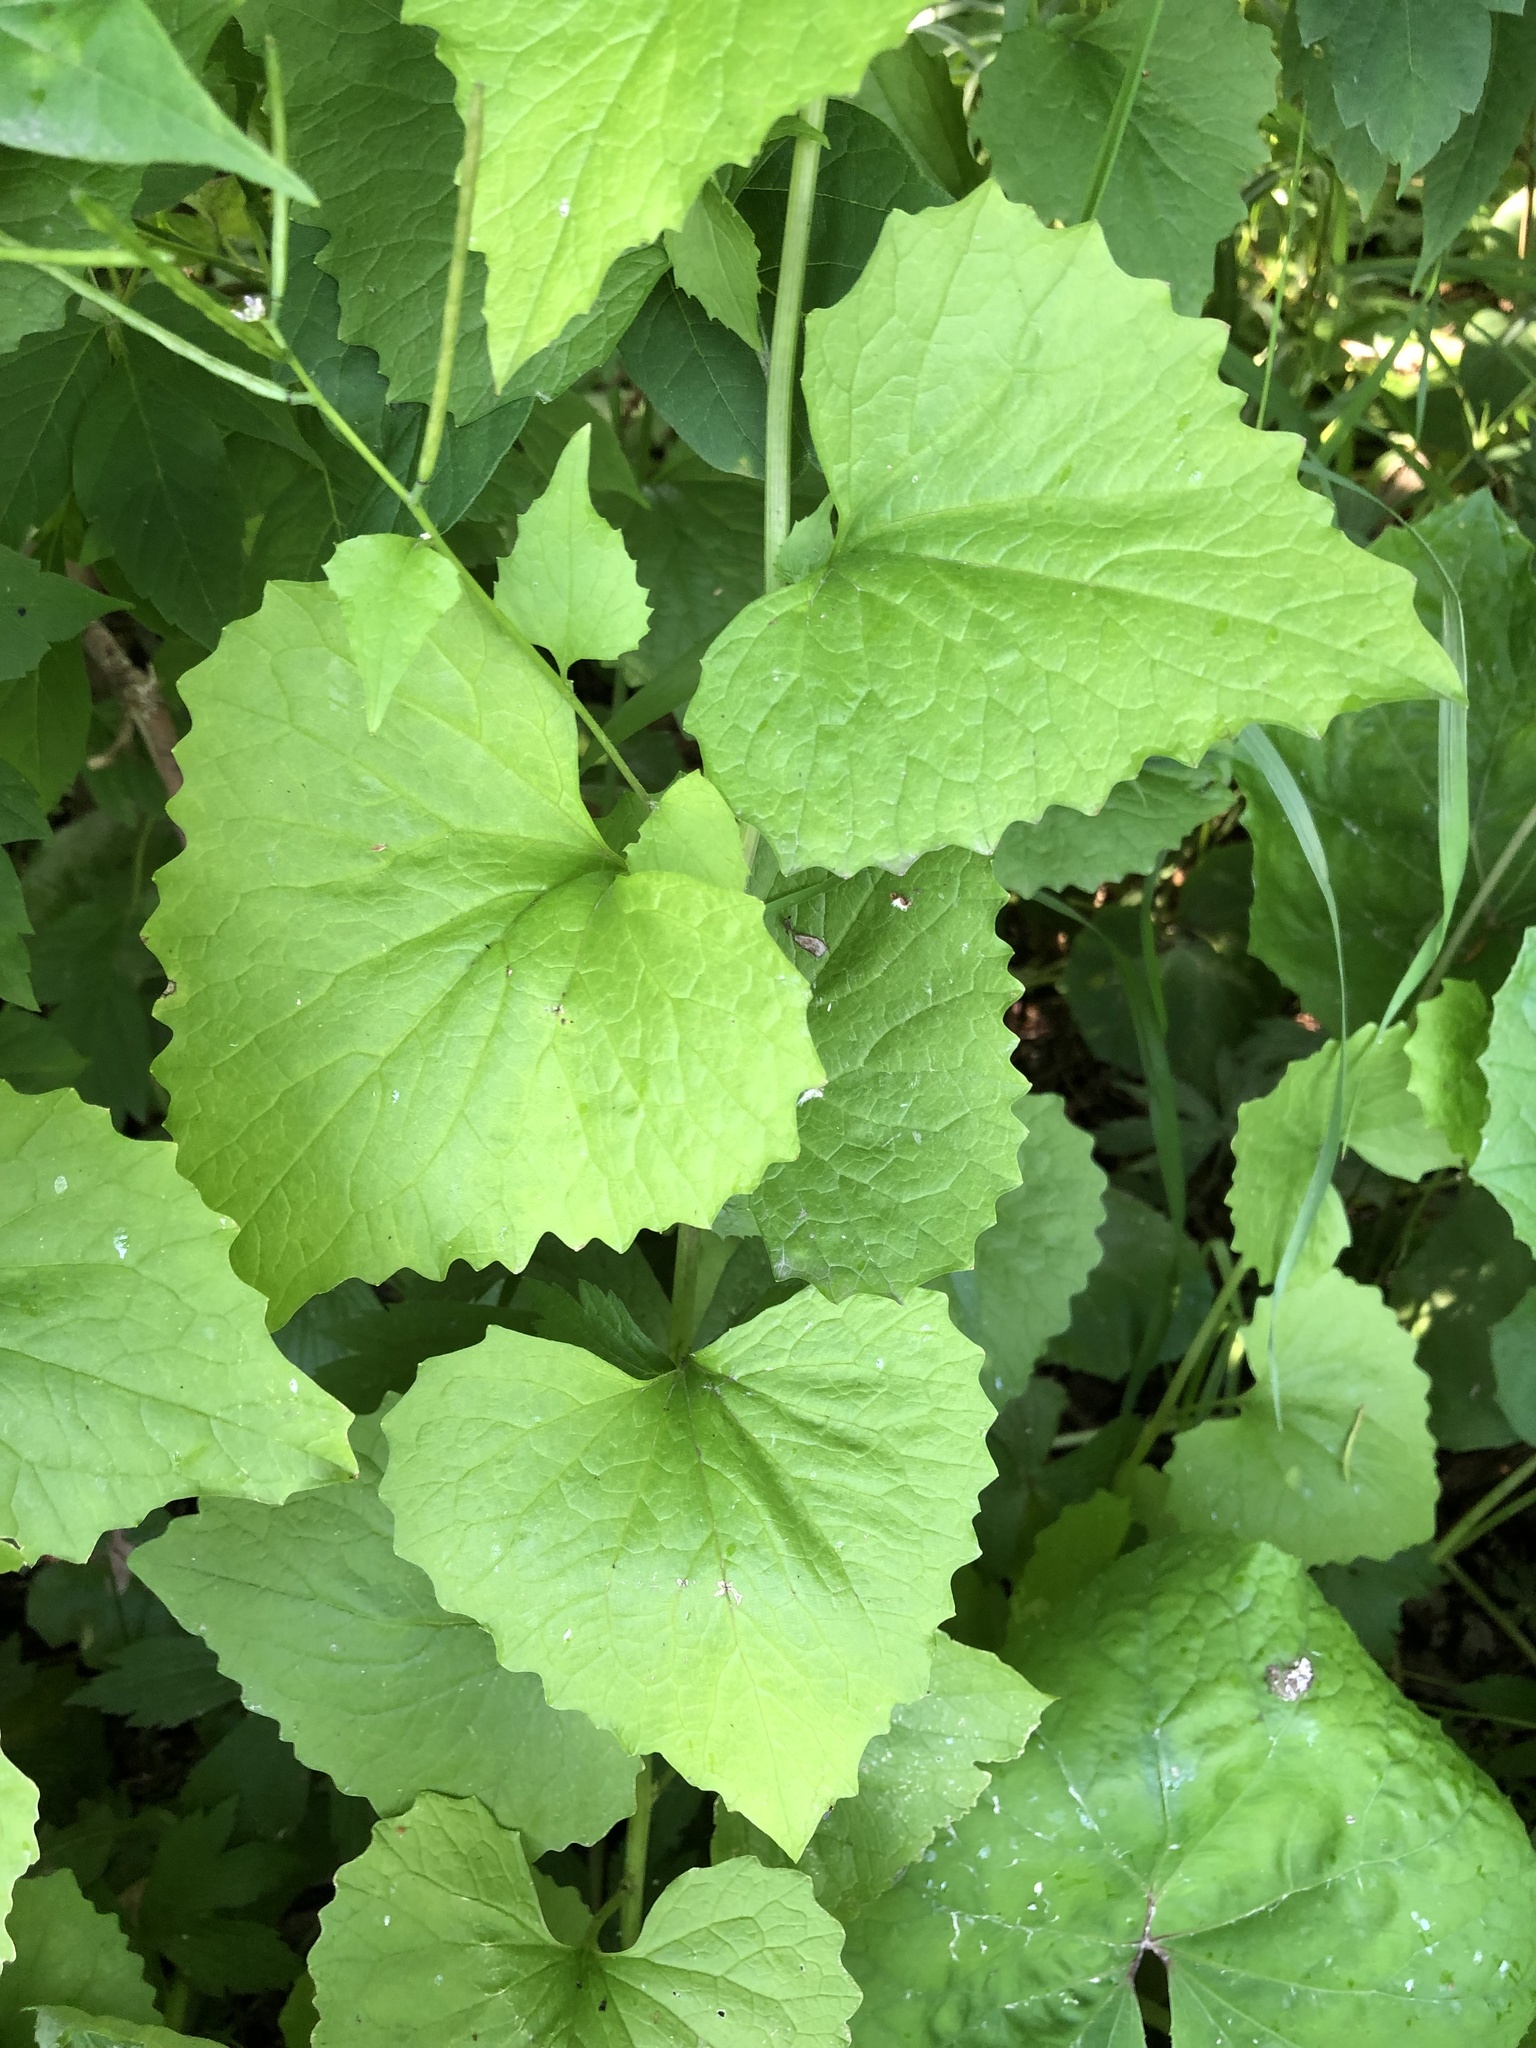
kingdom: Plantae
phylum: Tracheophyta
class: Magnoliopsida
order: Brassicales
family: Brassicaceae
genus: Alliaria
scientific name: Alliaria petiolata
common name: Garlic mustard
